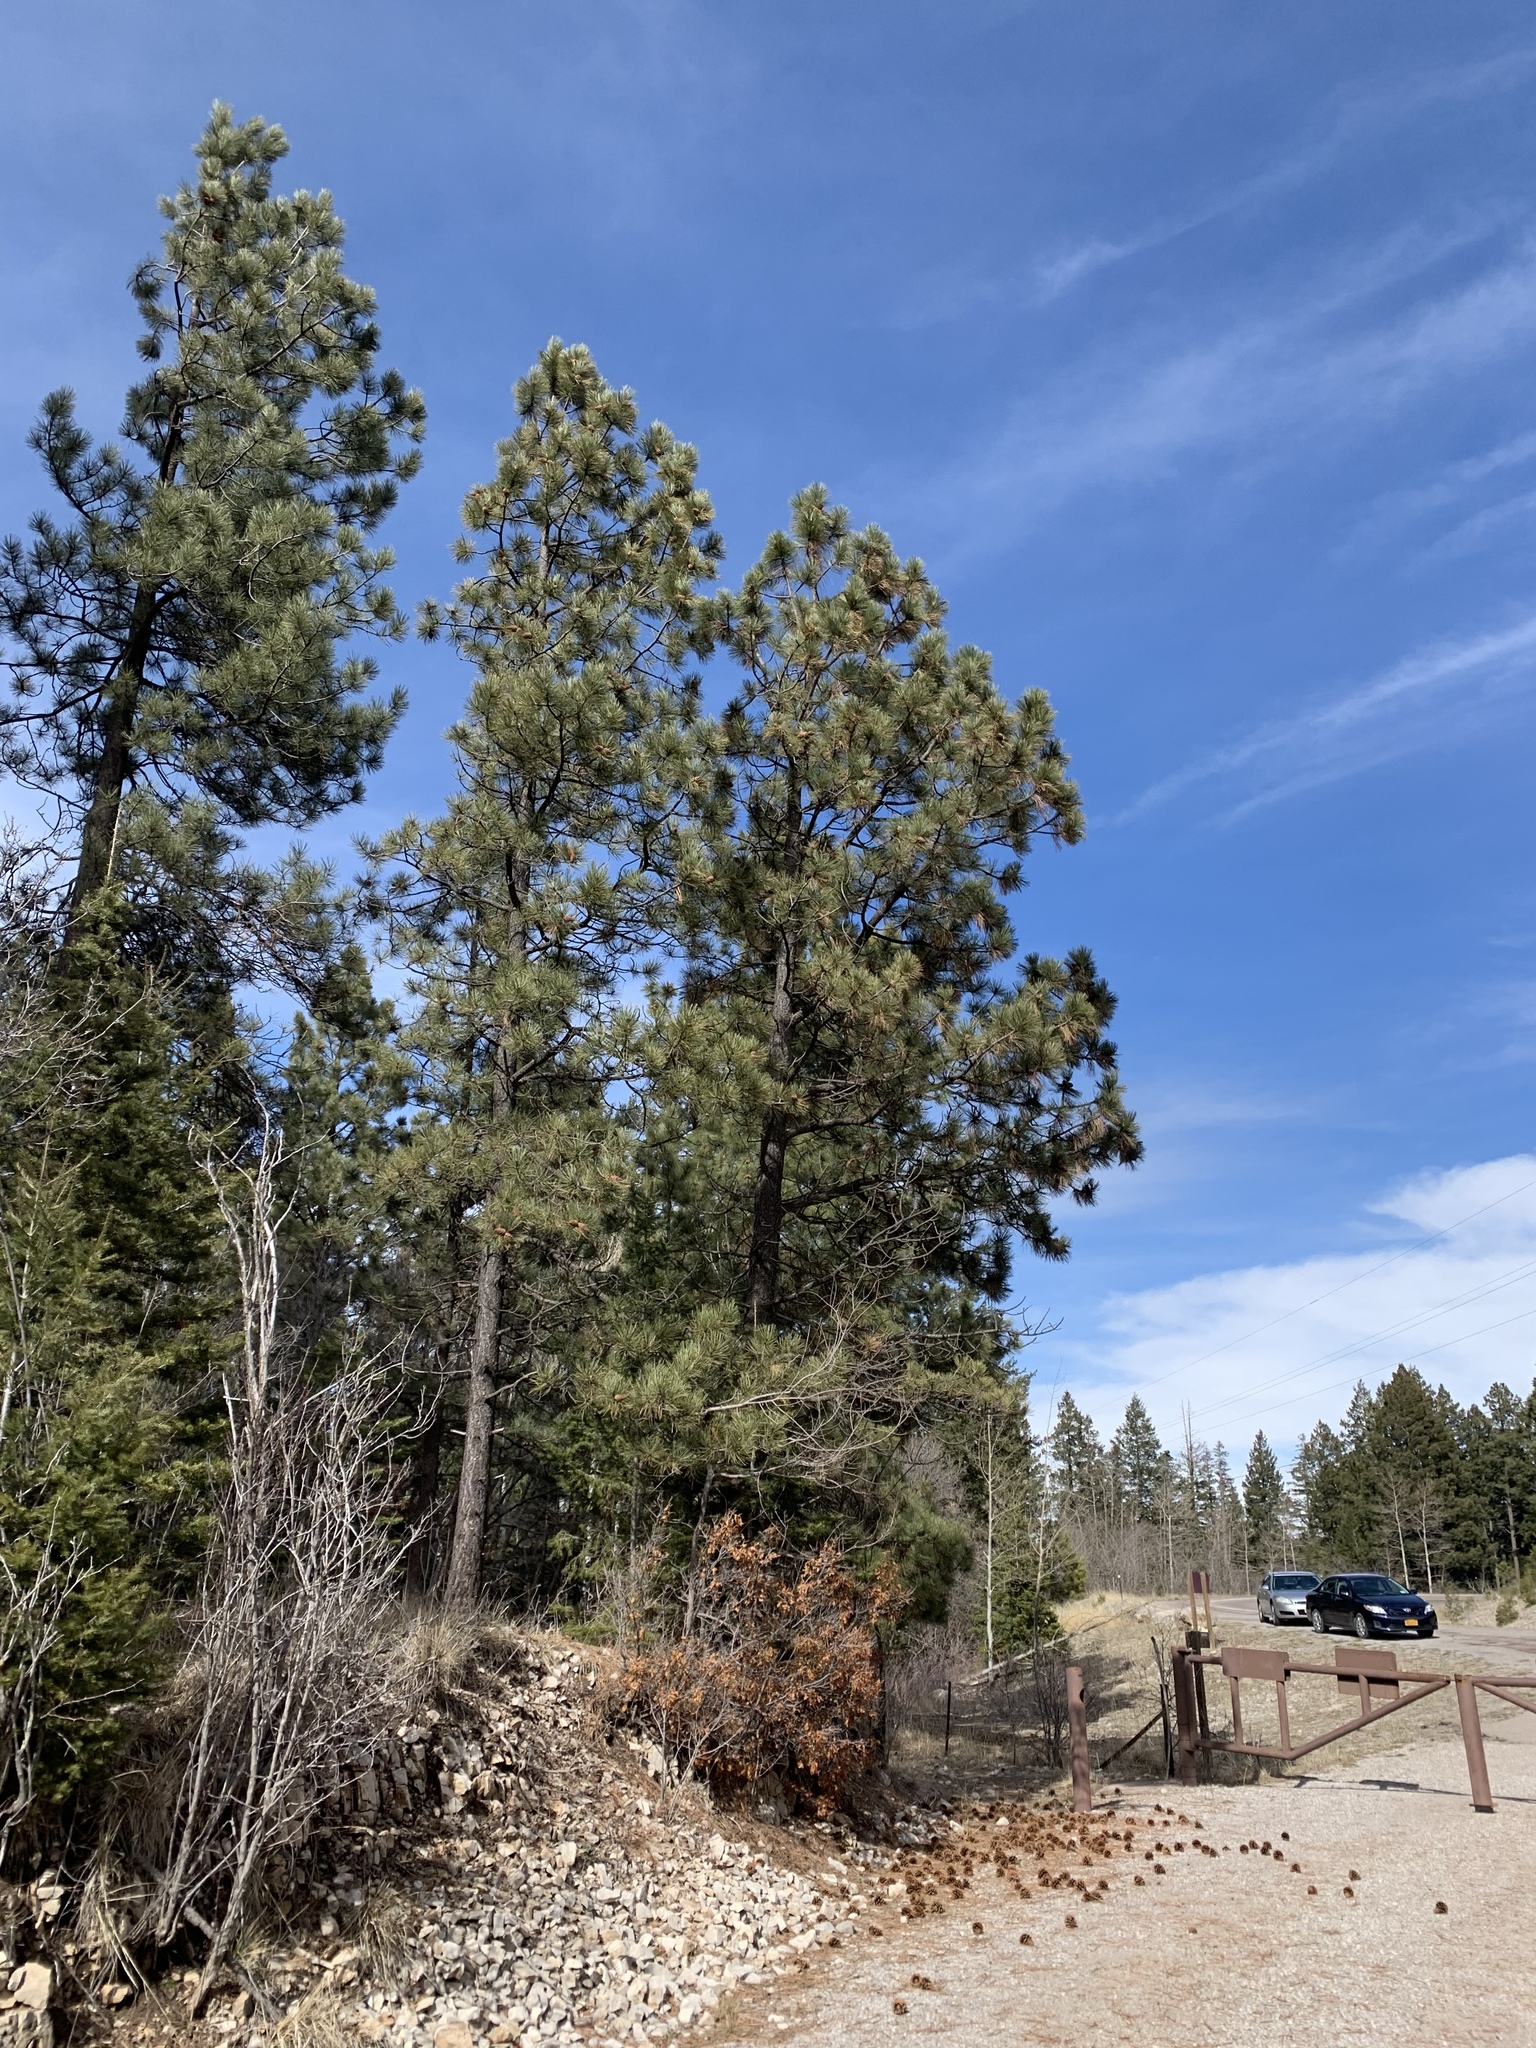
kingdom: Plantae
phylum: Tracheophyta
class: Pinopsida
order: Pinales
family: Pinaceae
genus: Pinus
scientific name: Pinus ponderosa
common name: Western yellow-pine
